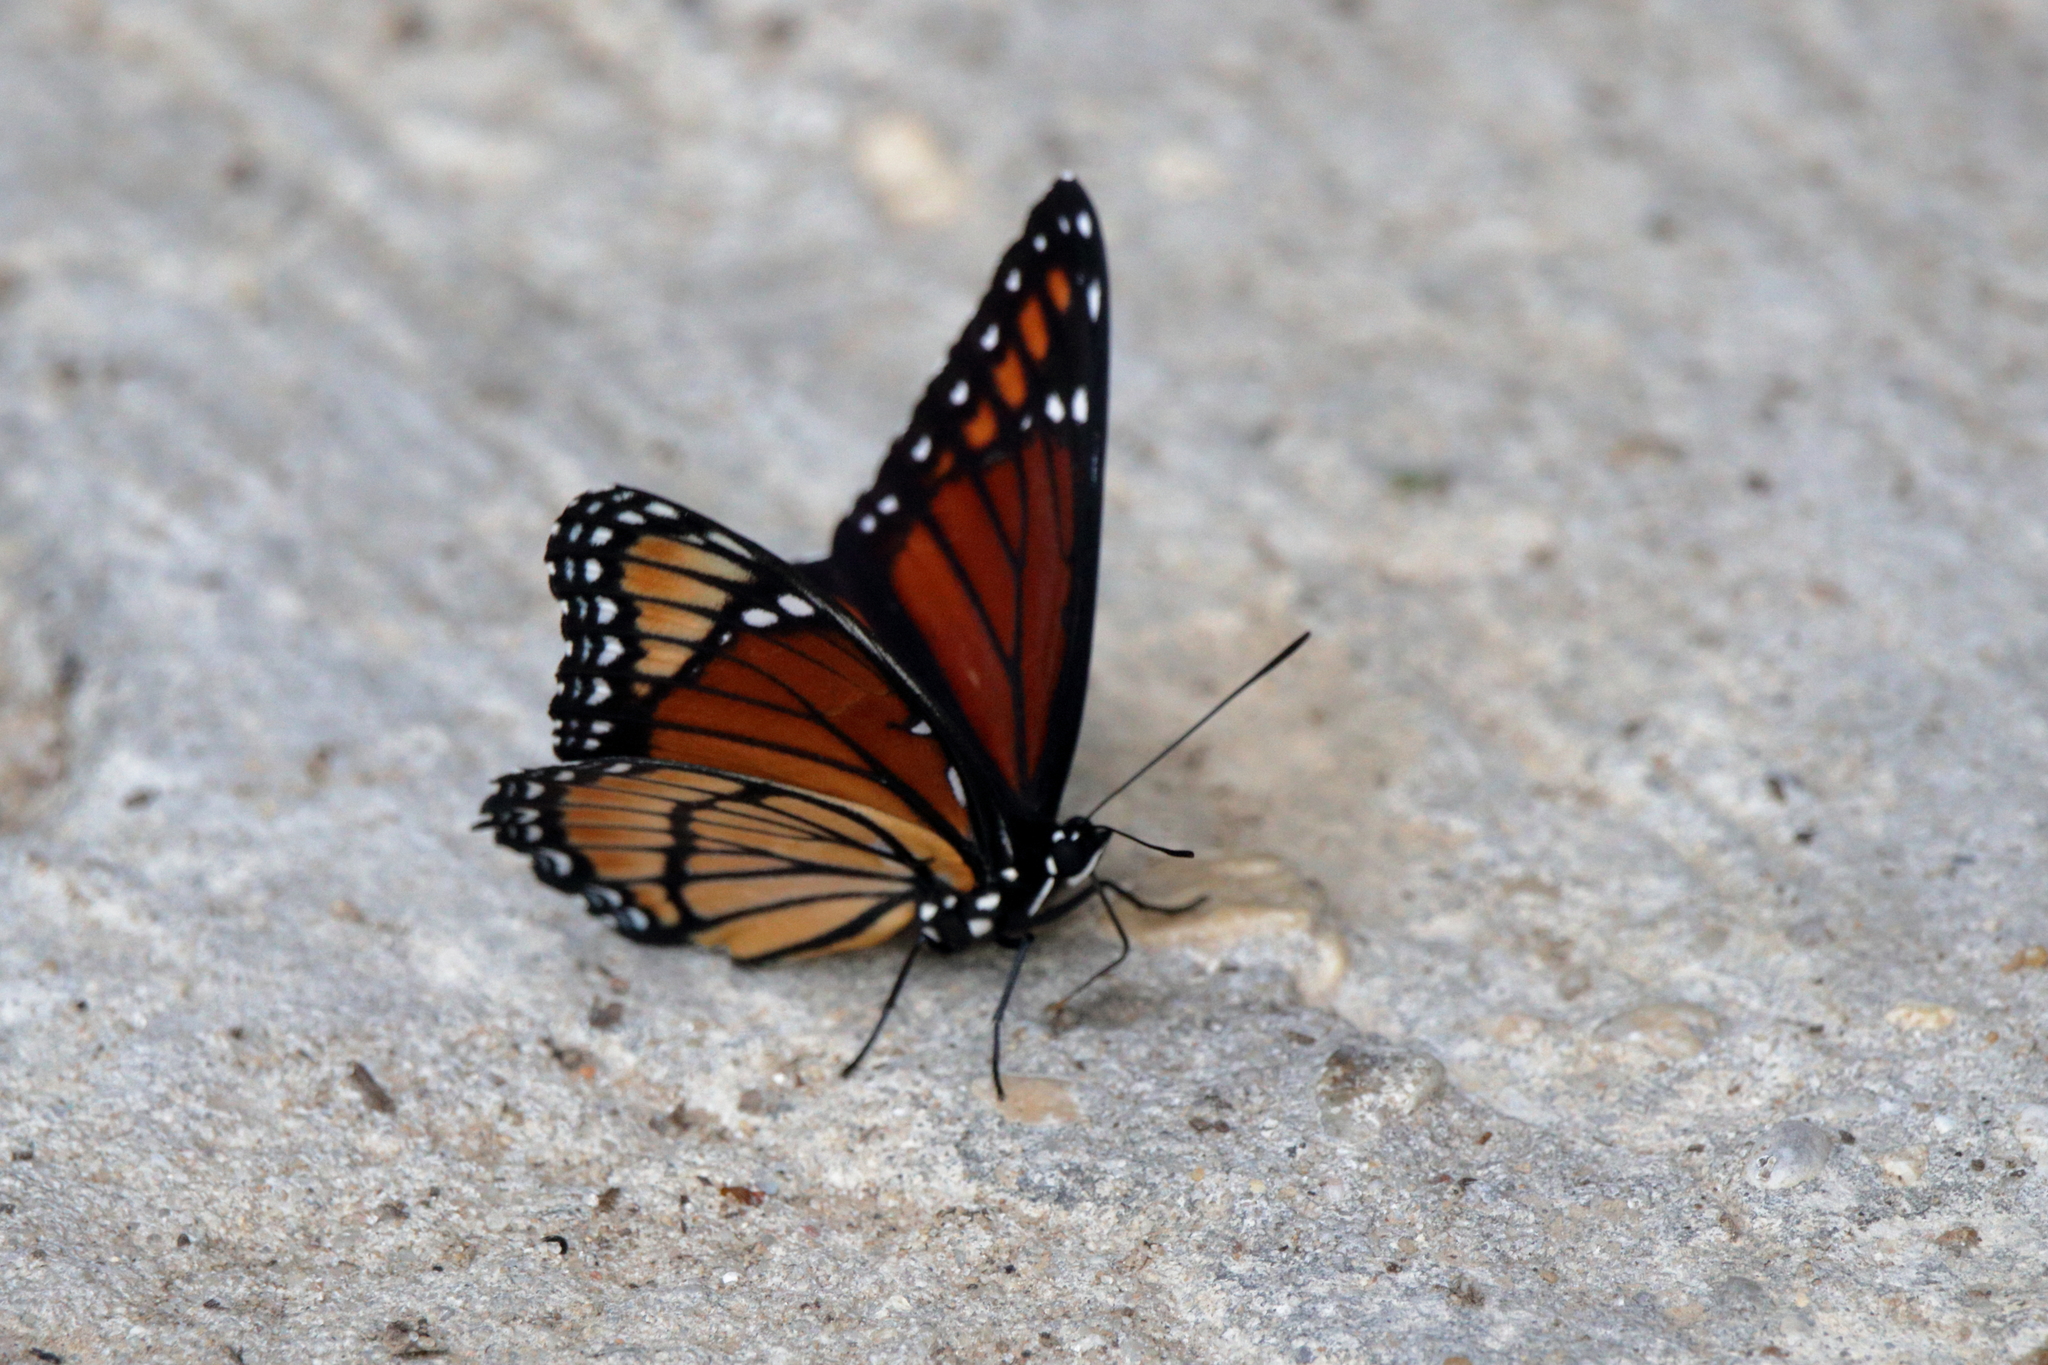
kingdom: Animalia
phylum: Arthropoda
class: Insecta
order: Lepidoptera
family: Nymphalidae
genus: Limenitis
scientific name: Limenitis archippus
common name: Viceroy
